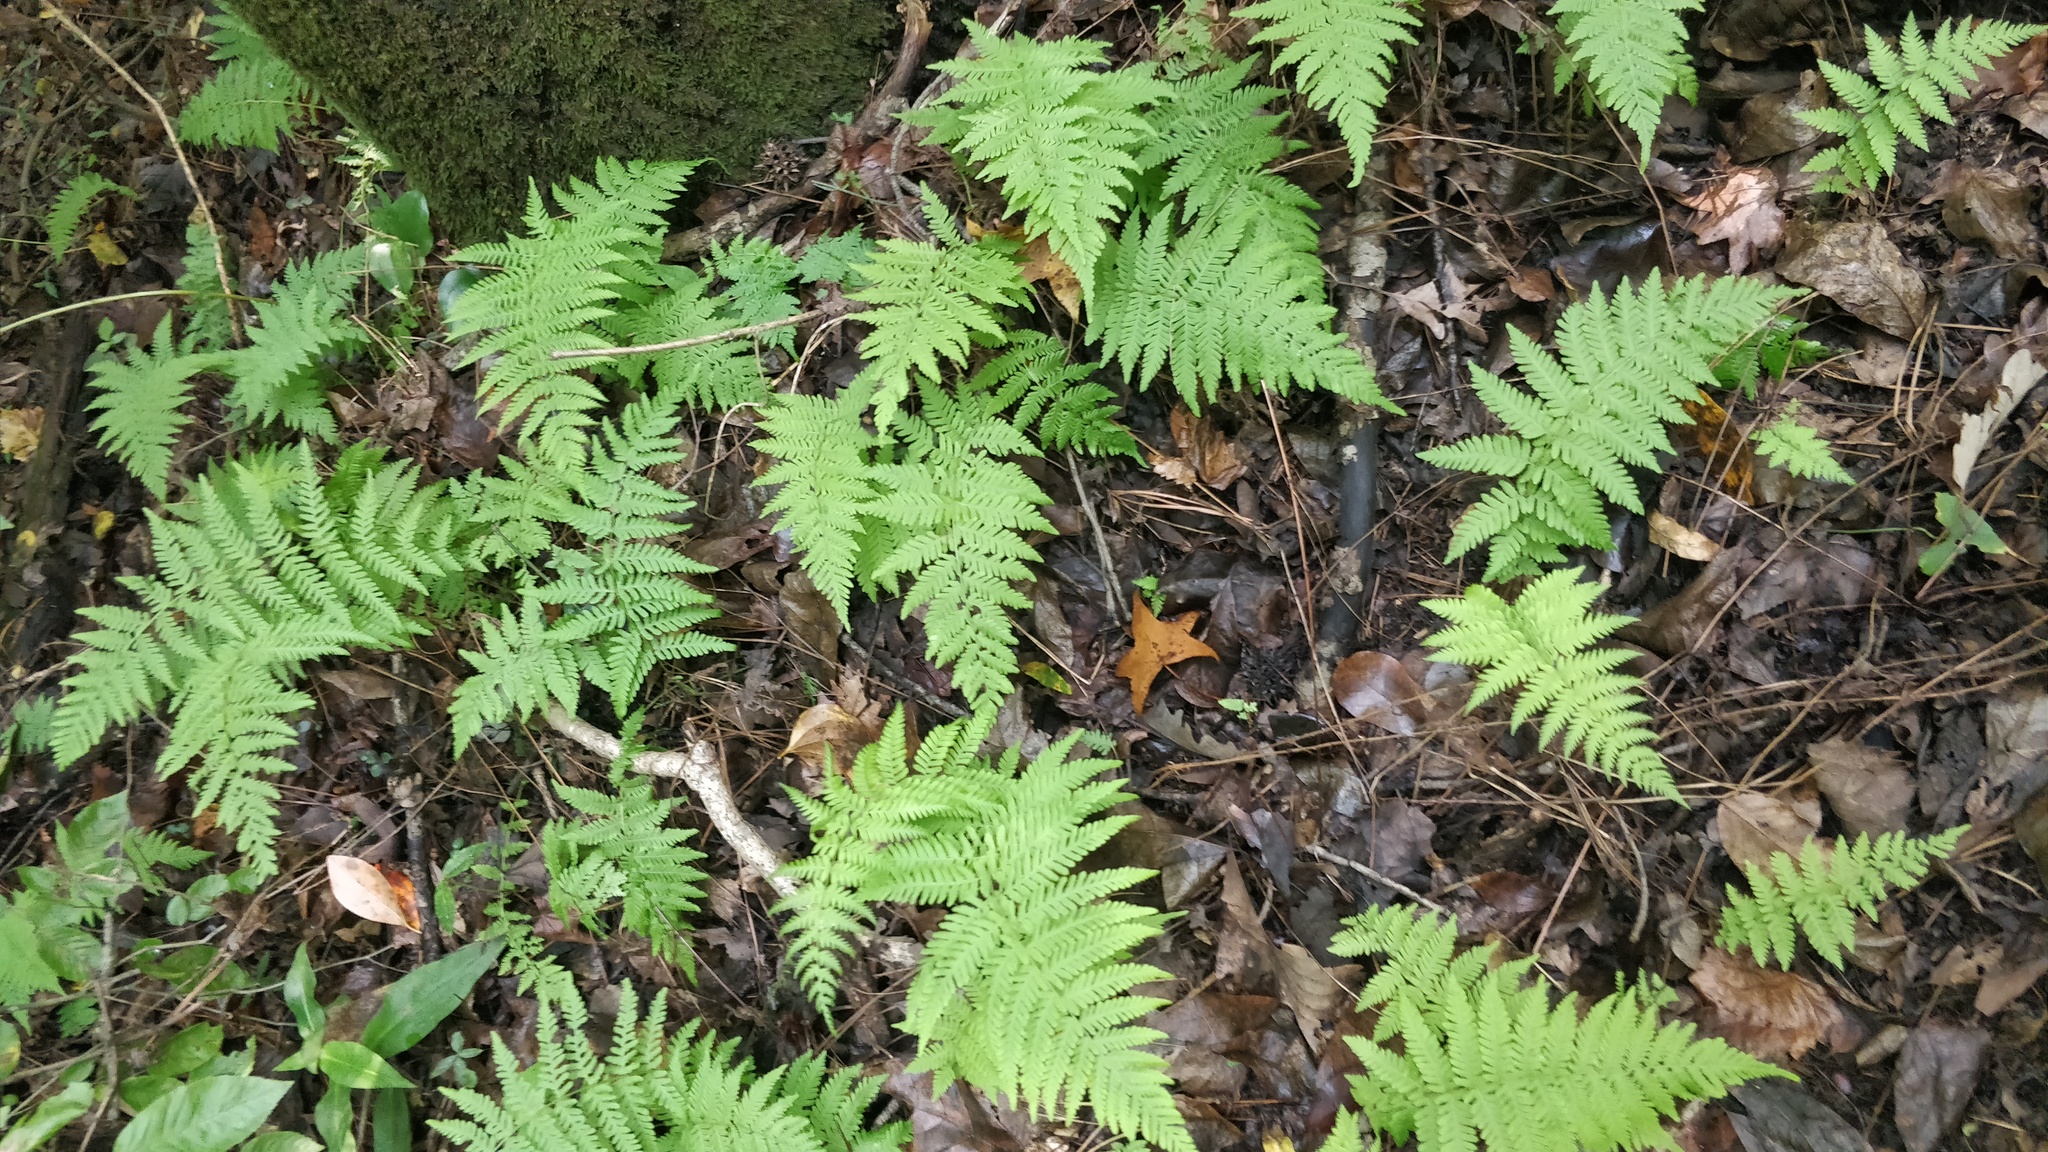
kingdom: Plantae
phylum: Tracheophyta
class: Polypodiopsida
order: Polypodiales
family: Thelypteridaceae
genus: Amauropelta
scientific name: Amauropelta noveboracensis
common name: New york fern
